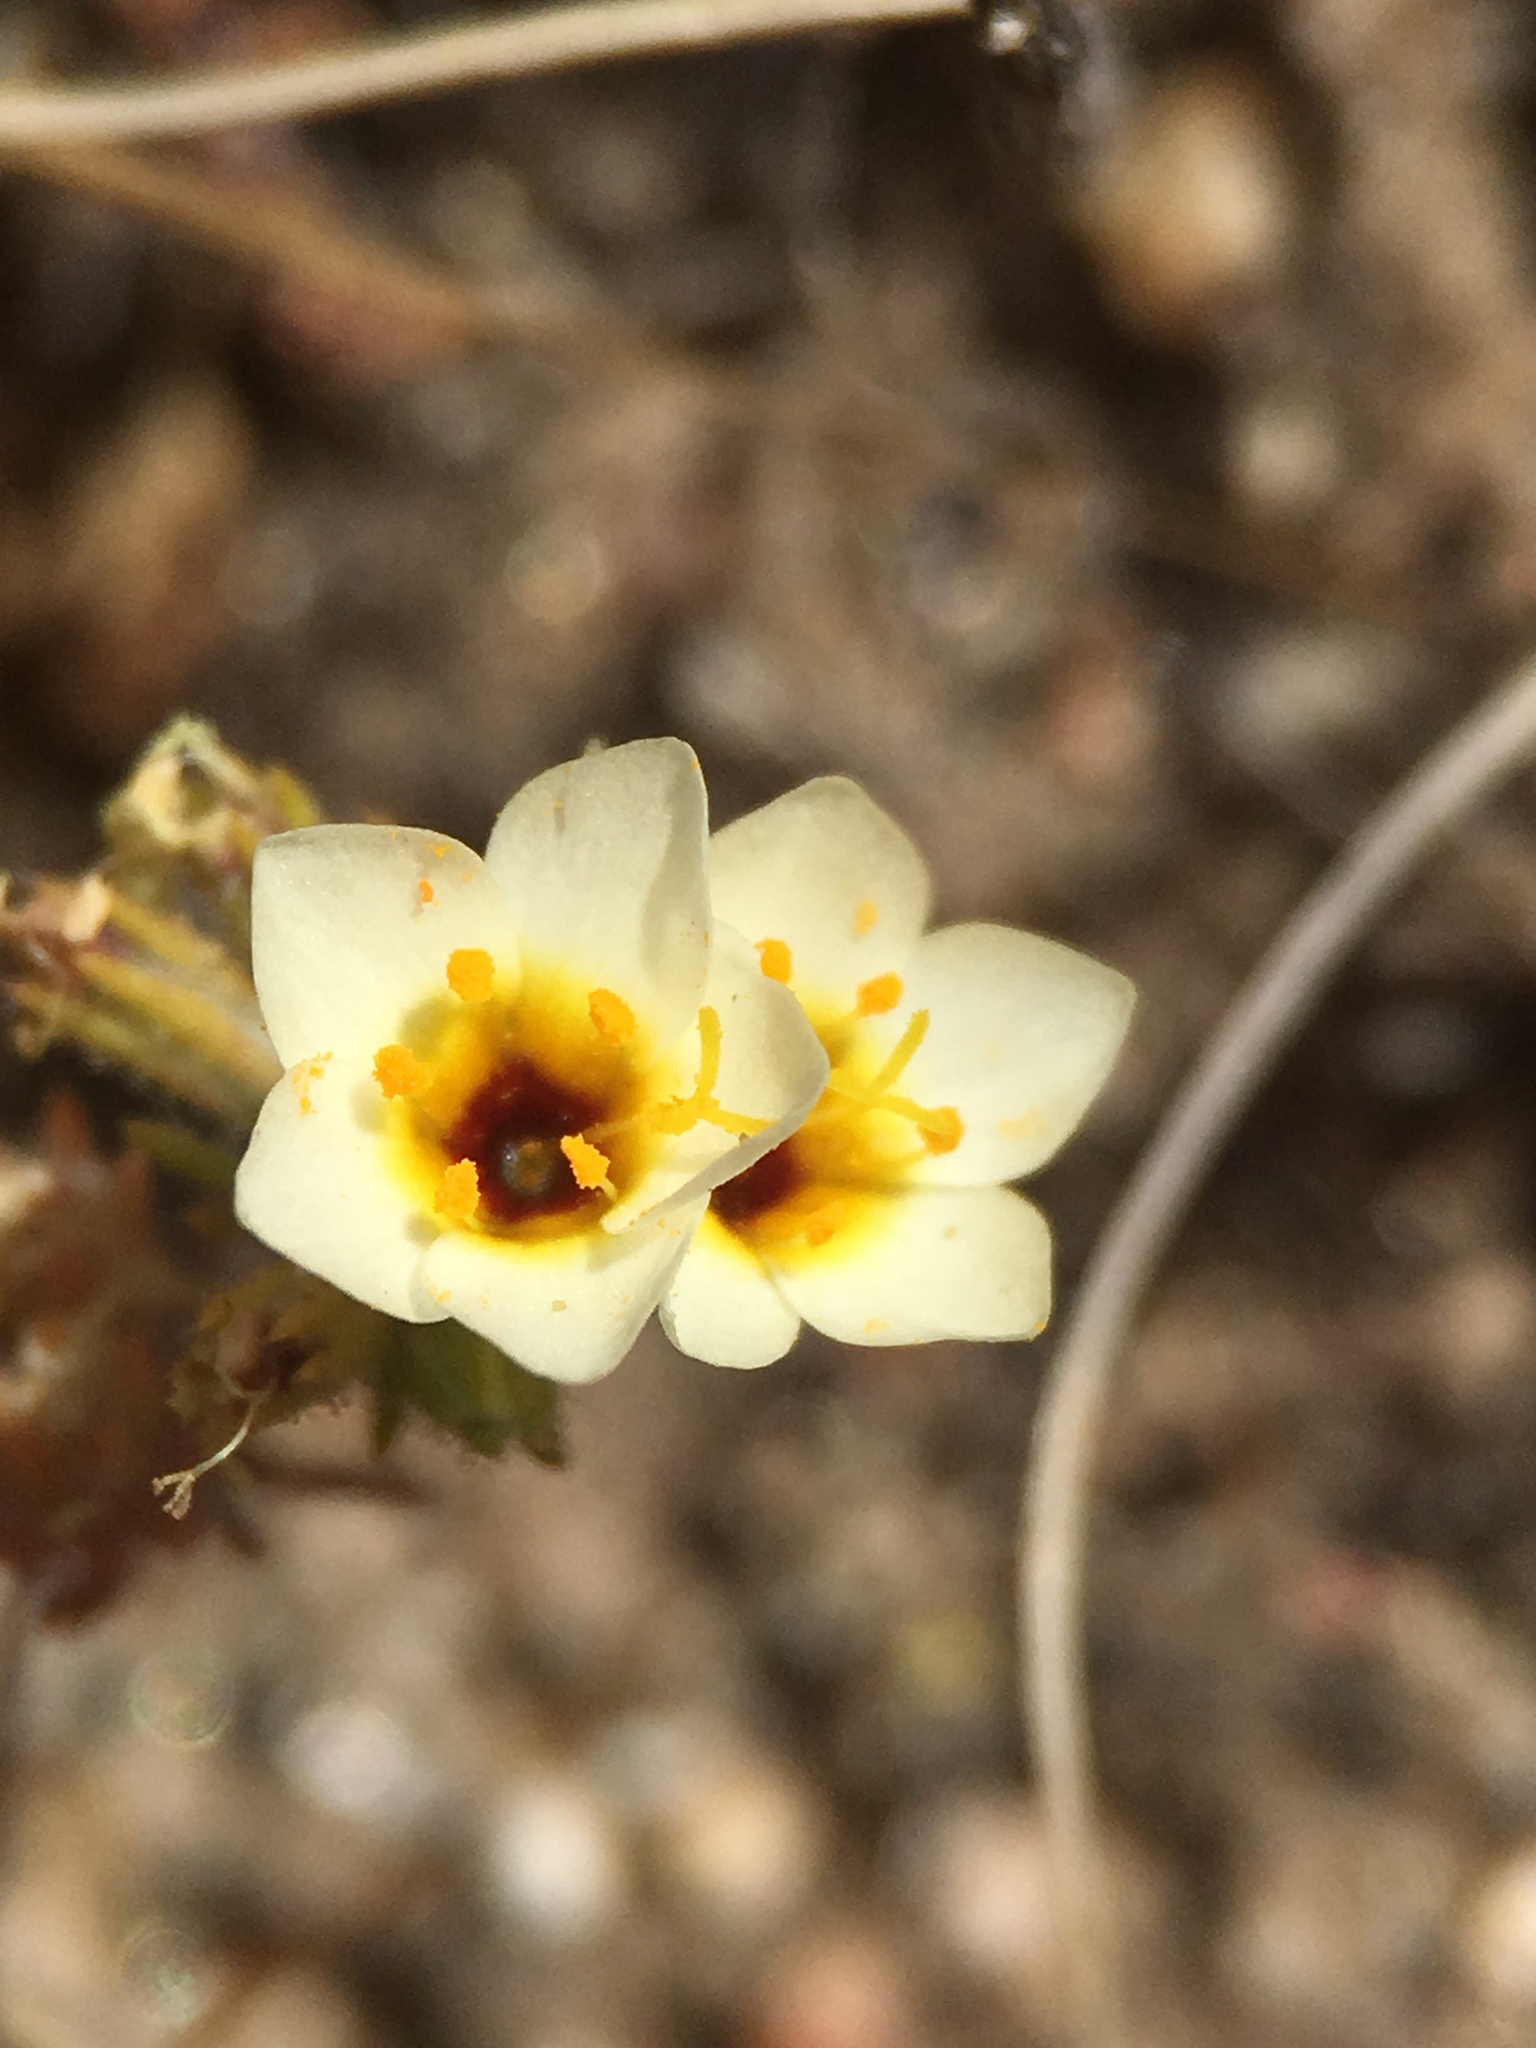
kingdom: Plantae
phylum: Tracheophyta
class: Magnoliopsida
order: Ericales
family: Polemoniaceae
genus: Leptosiphon
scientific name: Leptosiphon lemmonii
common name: Lemmon's linanthus
